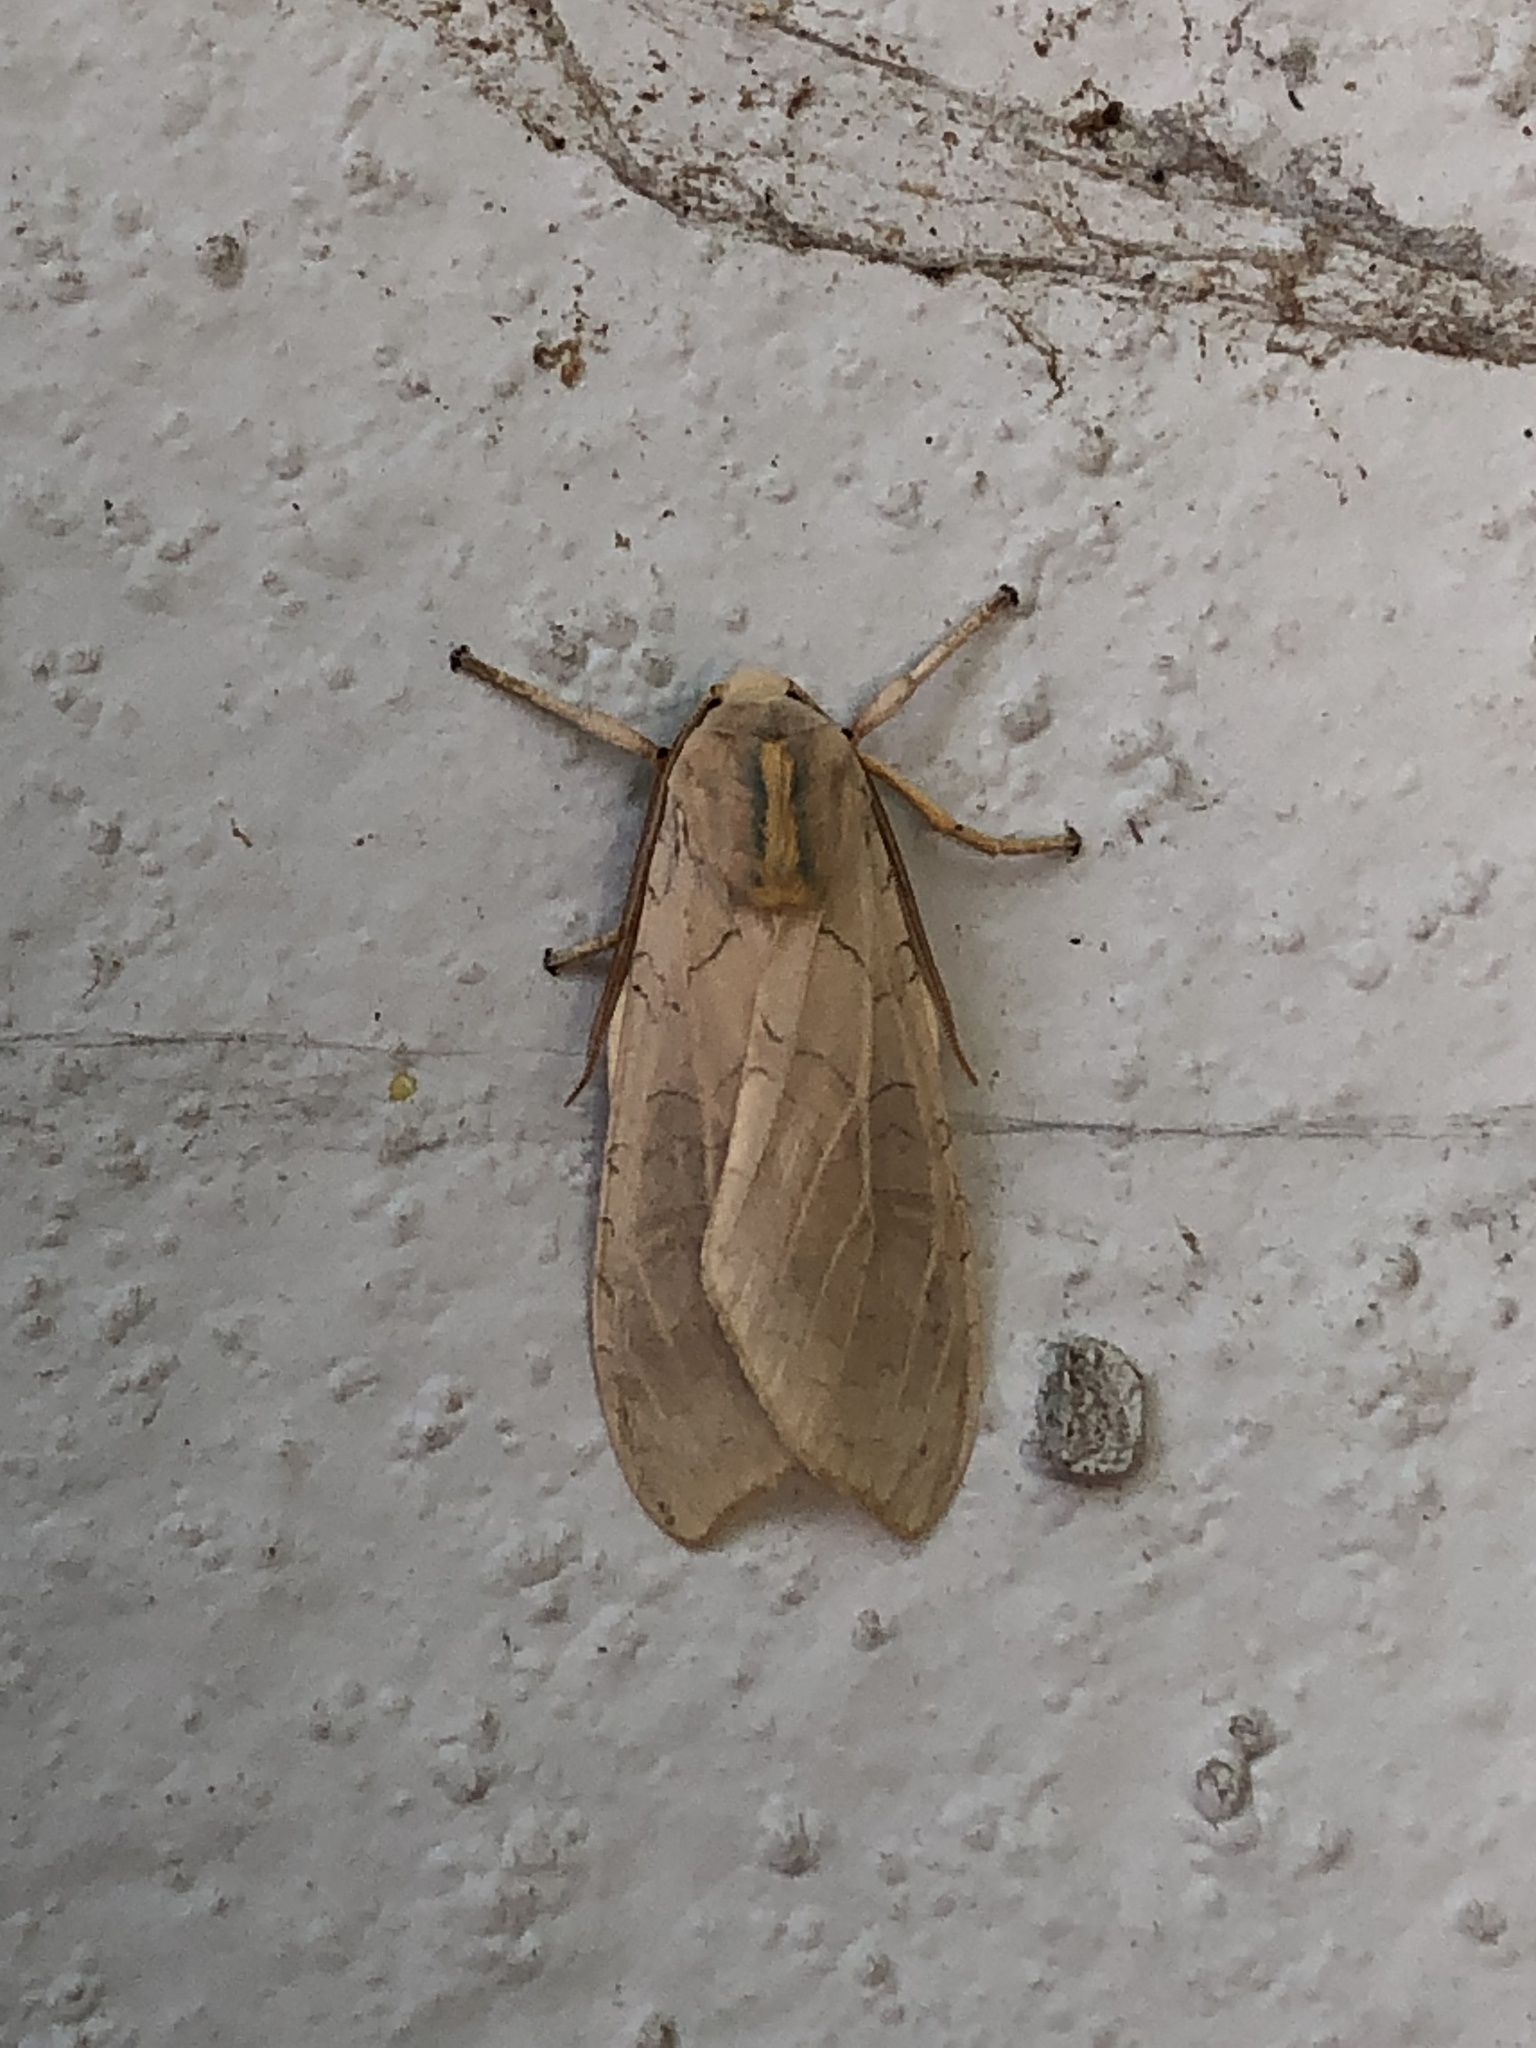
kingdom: Animalia
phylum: Arthropoda
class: Insecta
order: Lepidoptera
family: Erebidae
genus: Halysidota
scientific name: Halysidota
